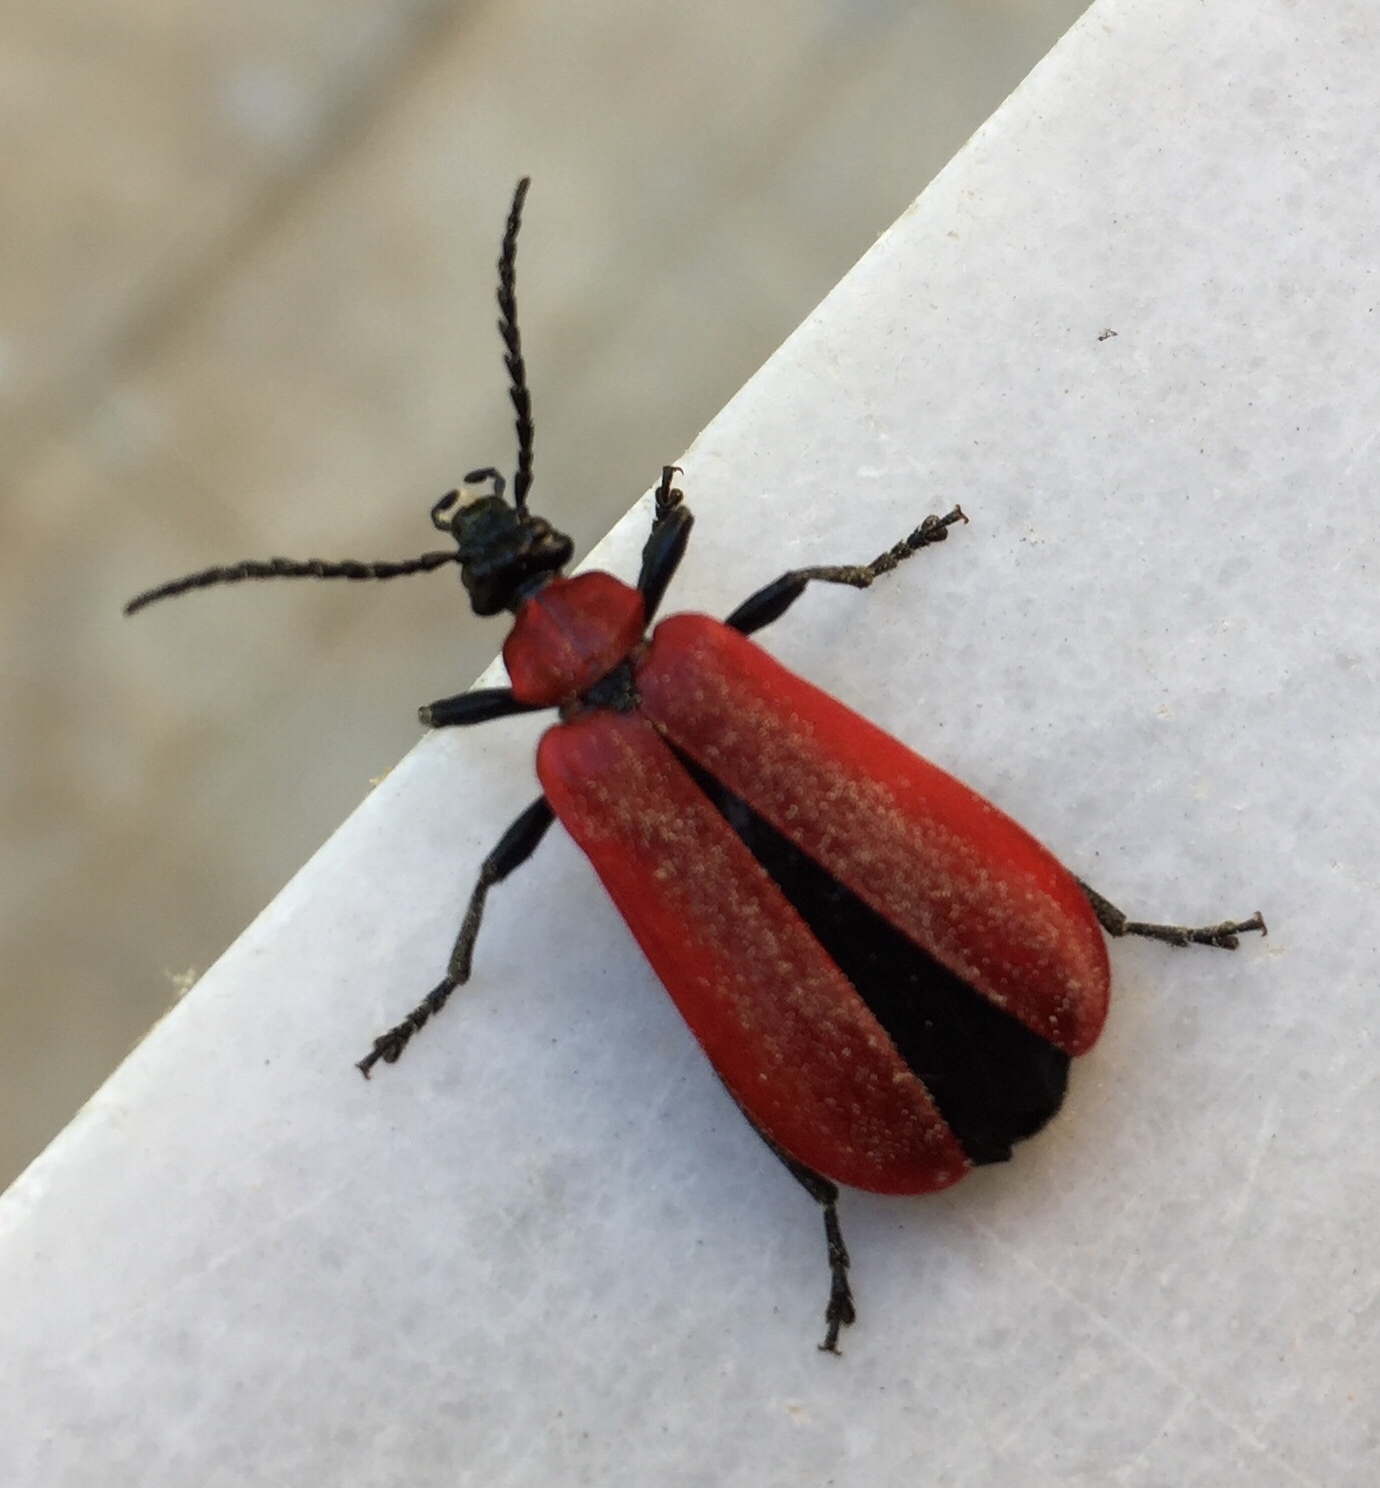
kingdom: Animalia
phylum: Arthropoda
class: Insecta
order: Coleoptera
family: Pyrochroidae
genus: Pyrochroa
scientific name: Pyrochroa coccinea
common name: Black-headed cardinal beetle
